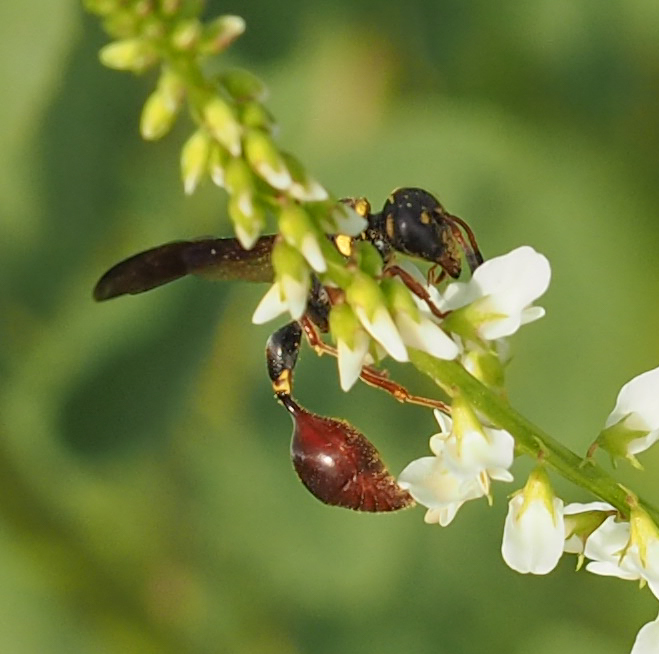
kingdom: Animalia
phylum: Arthropoda
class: Insecta
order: Hymenoptera
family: Eumenidae
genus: Zethus
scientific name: Zethus slossonae
